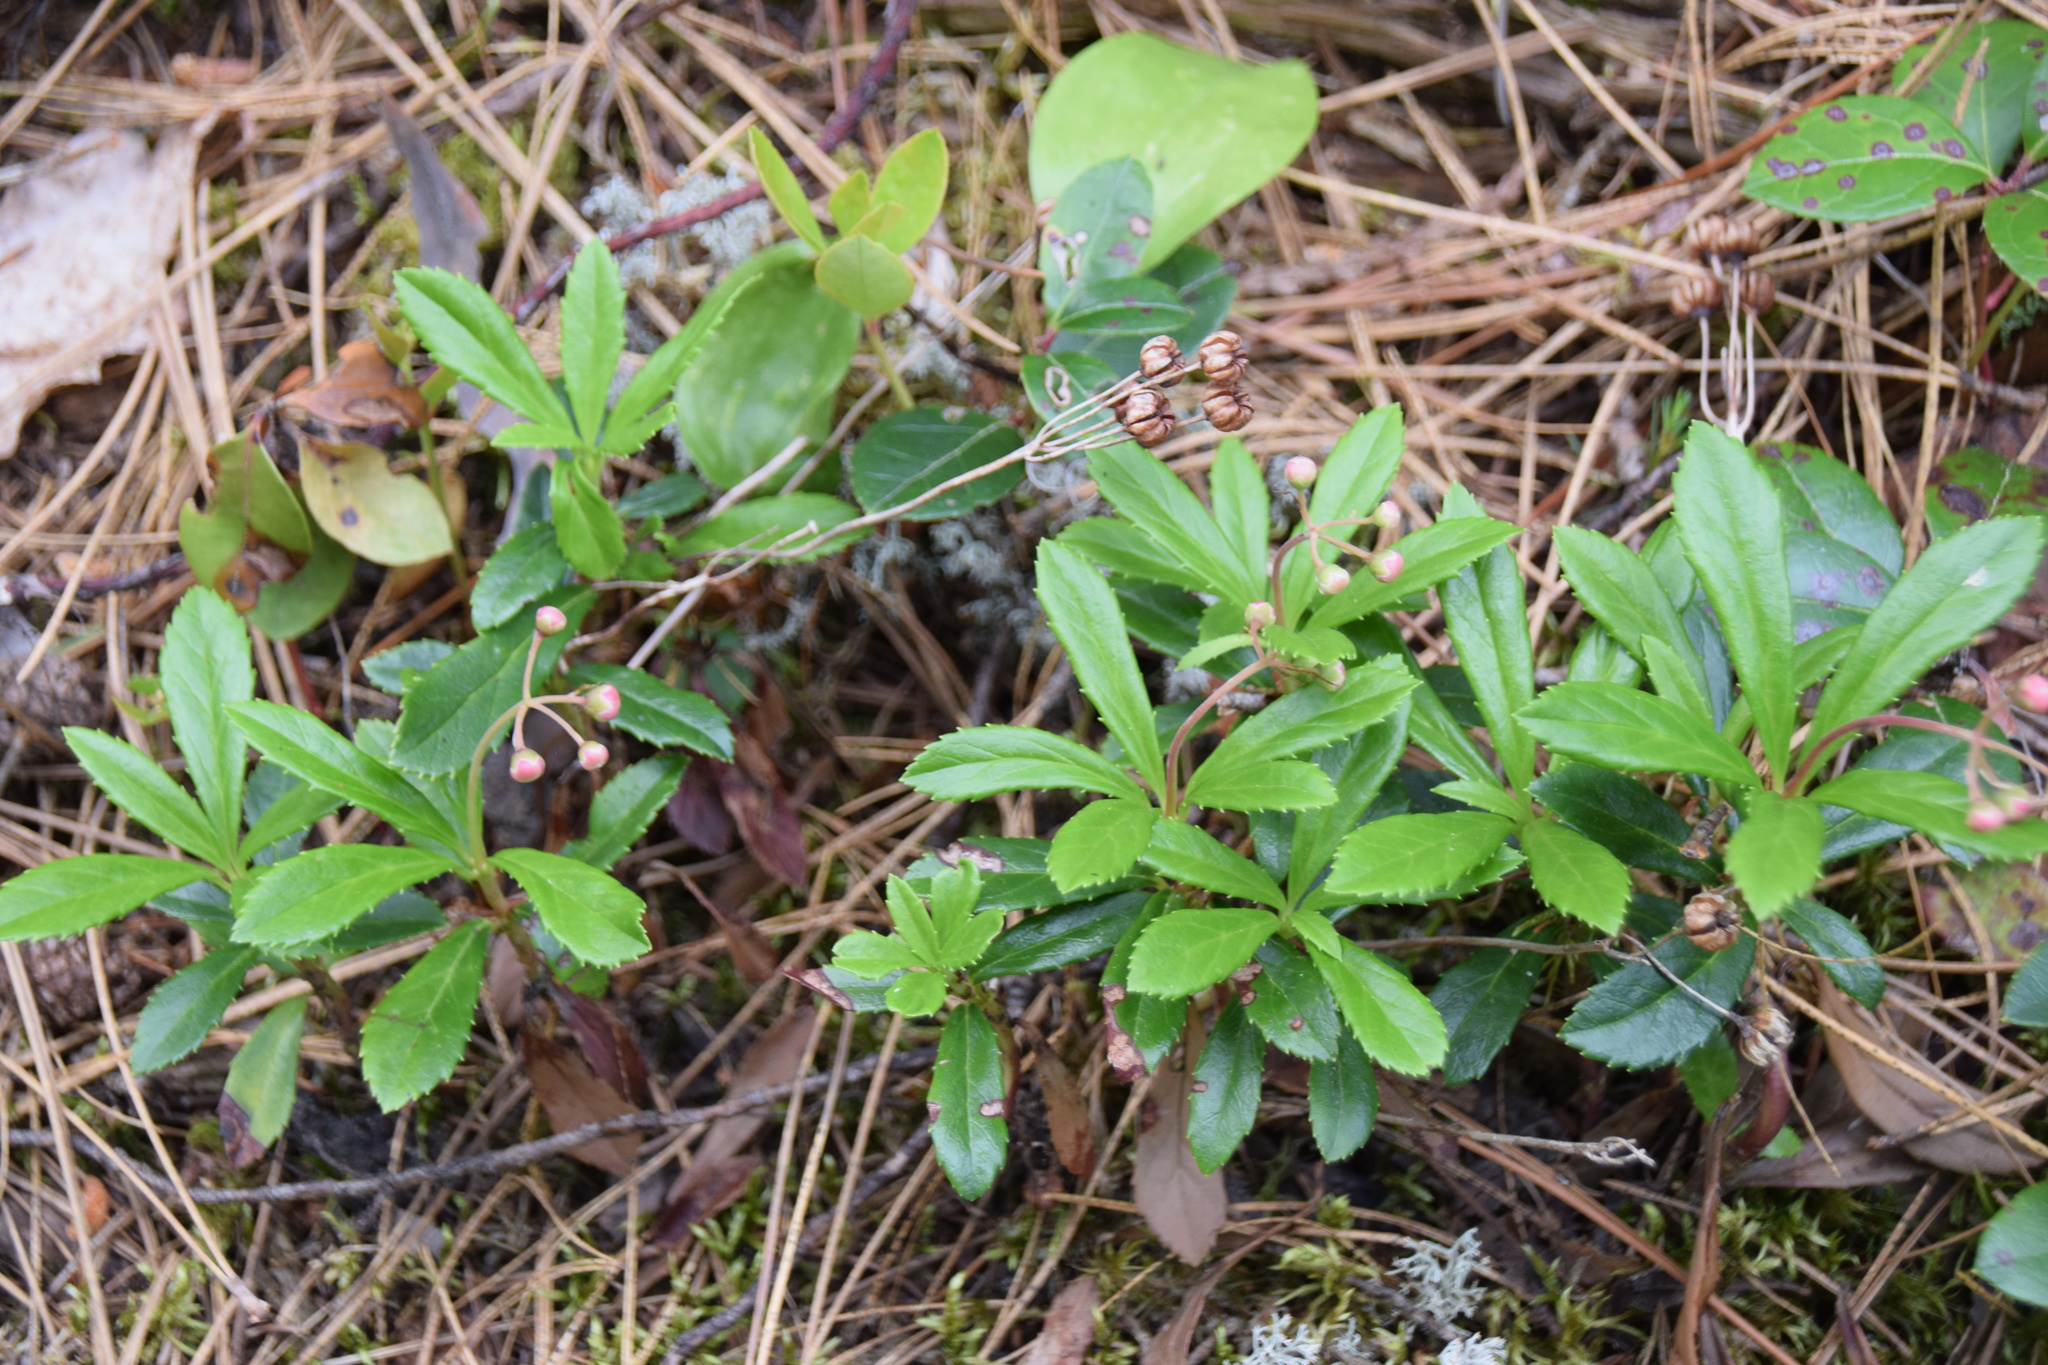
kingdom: Plantae
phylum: Tracheophyta
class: Magnoliopsida
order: Ericales
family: Ericaceae
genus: Chimaphila
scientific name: Chimaphila umbellata
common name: Pipsissewa
